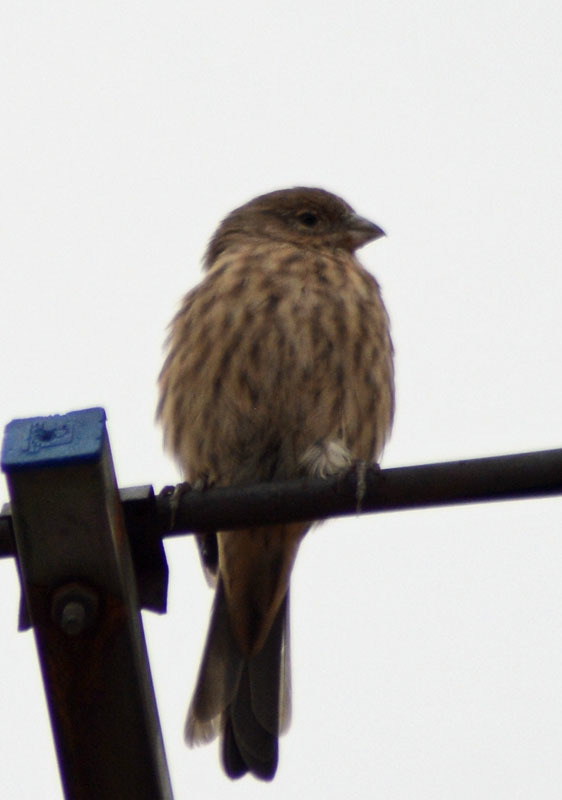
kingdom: Animalia
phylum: Chordata
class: Aves
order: Passeriformes
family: Fringillidae
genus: Haemorhous
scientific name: Haemorhous mexicanus
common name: House finch
